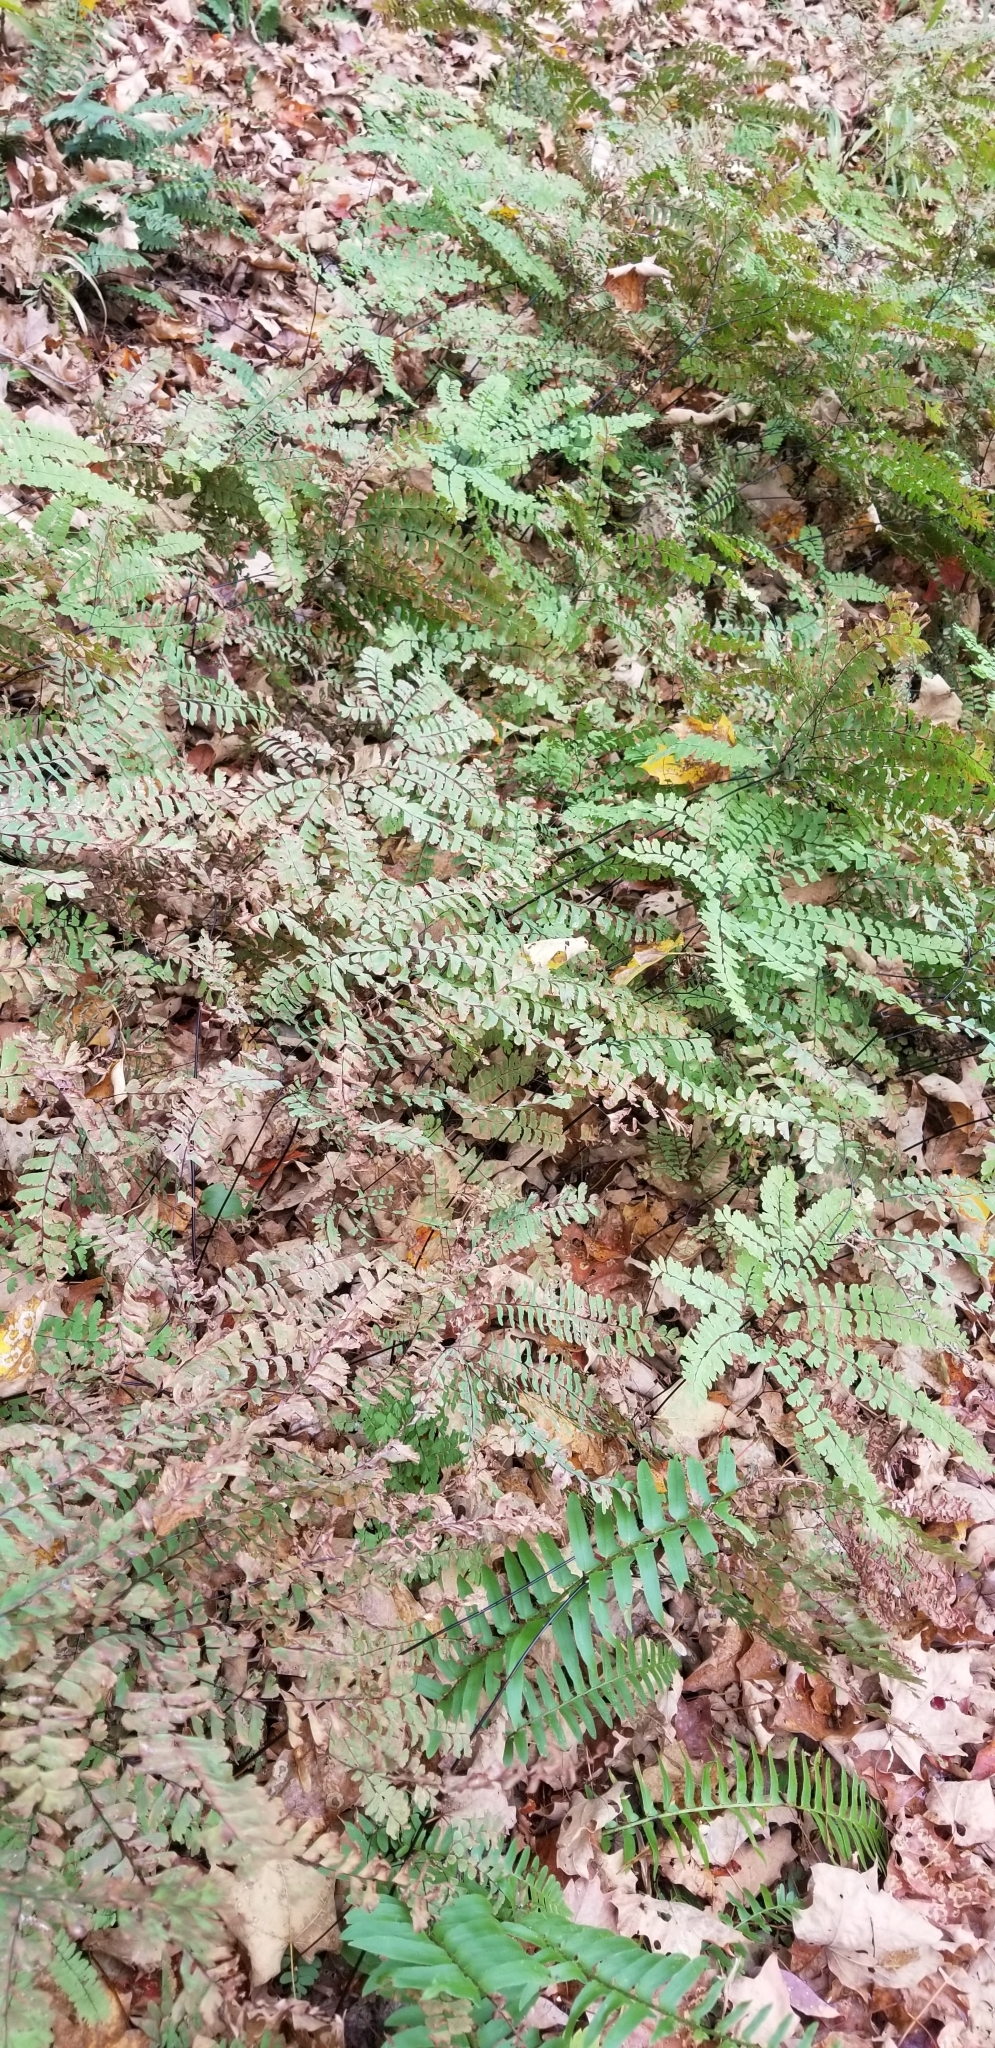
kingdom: Plantae
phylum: Tracheophyta
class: Polypodiopsida
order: Polypodiales
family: Pteridaceae
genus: Adiantum
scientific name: Adiantum pedatum
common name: Five-finger fern
